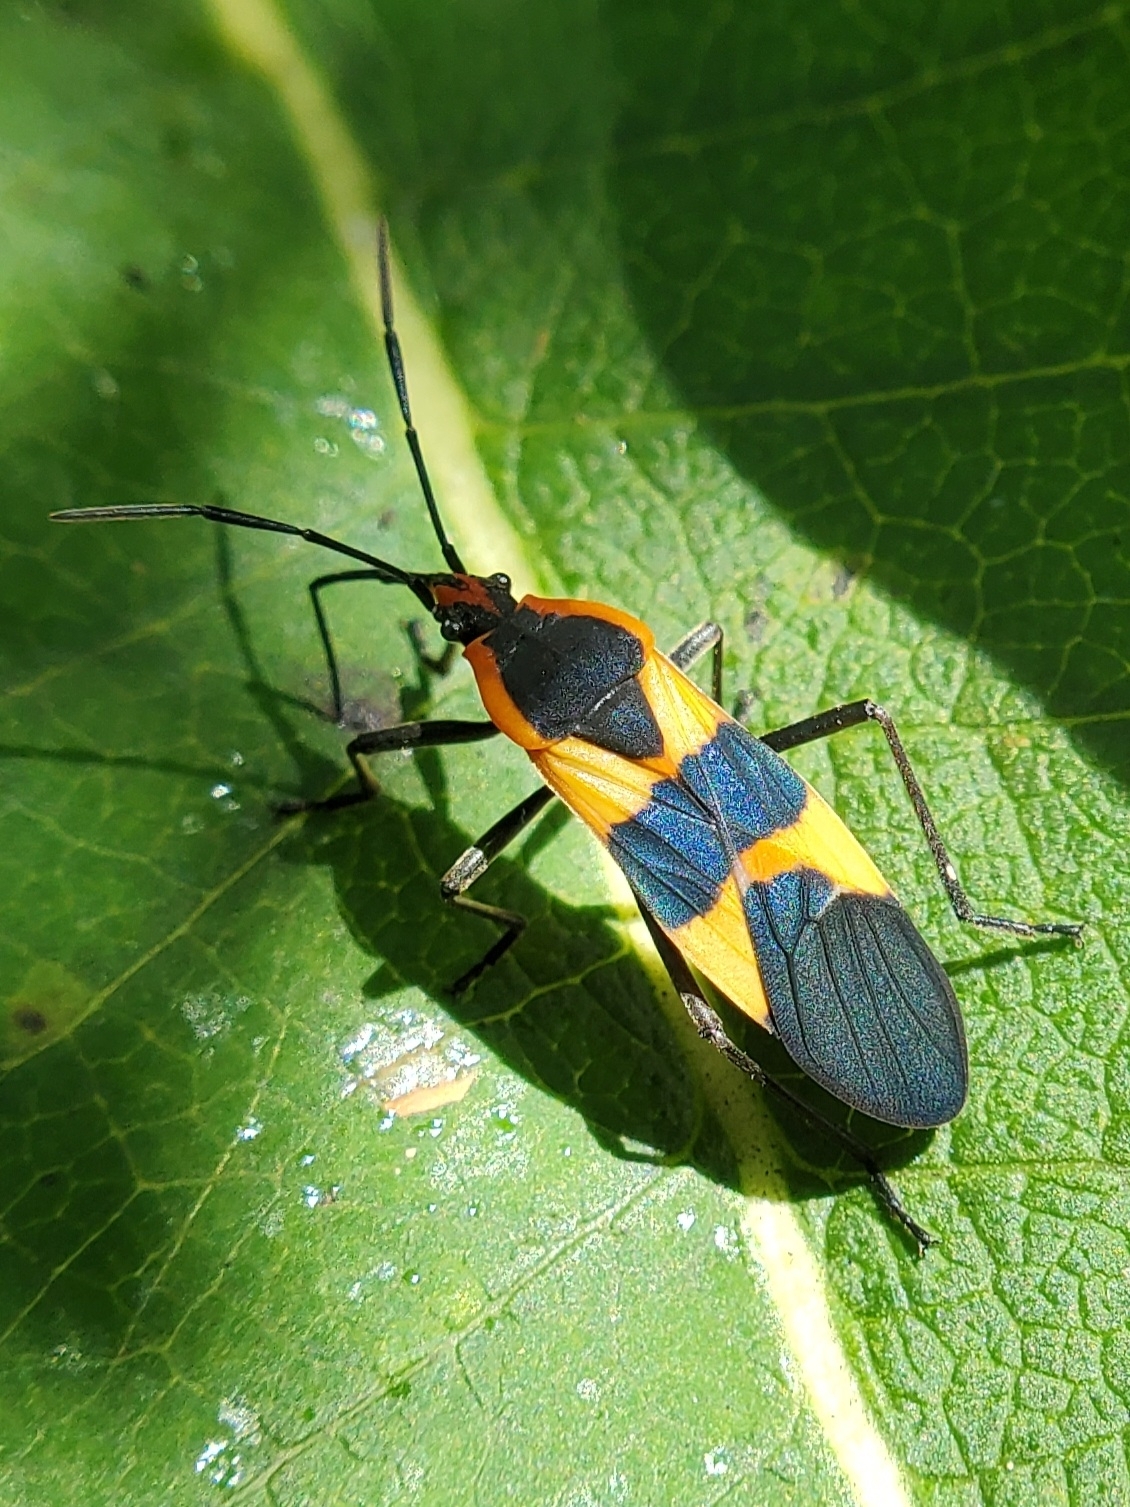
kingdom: Animalia
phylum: Arthropoda
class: Insecta
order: Hemiptera
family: Lygaeidae
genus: Oncopeltus
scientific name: Oncopeltus fasciatus
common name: Large milkweed bug
